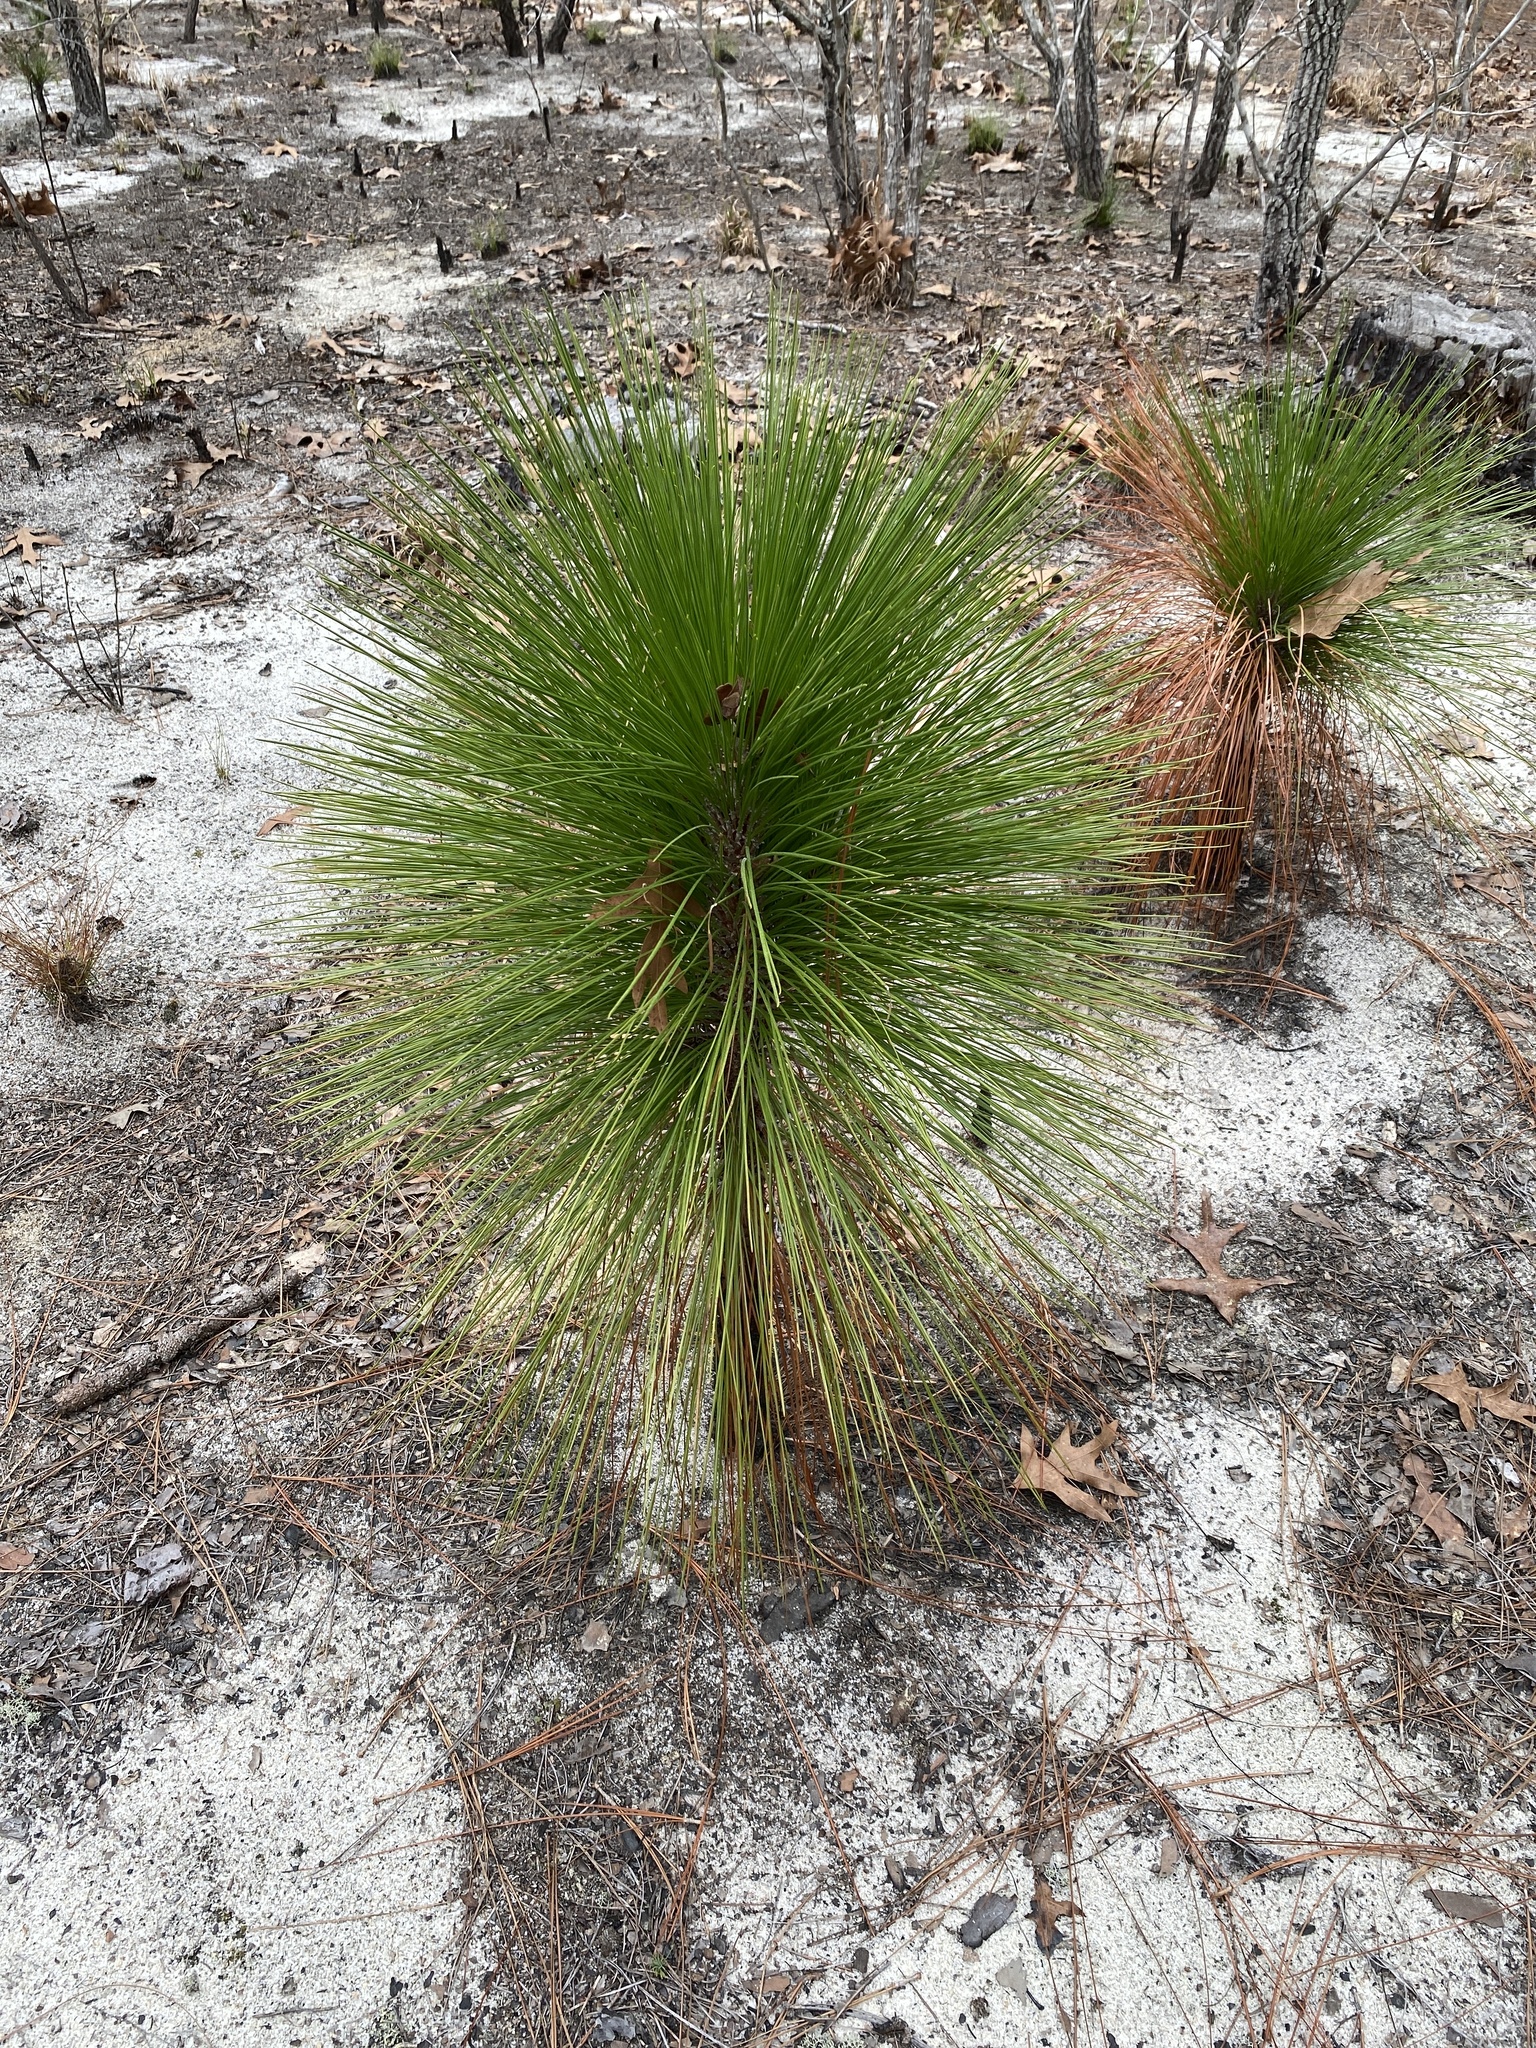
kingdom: Plantae
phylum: Tracheophyta
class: Pinopsida
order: Pinales
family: Pinaceae
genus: Pinus
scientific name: Pinus palustris
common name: Longleaf pine
